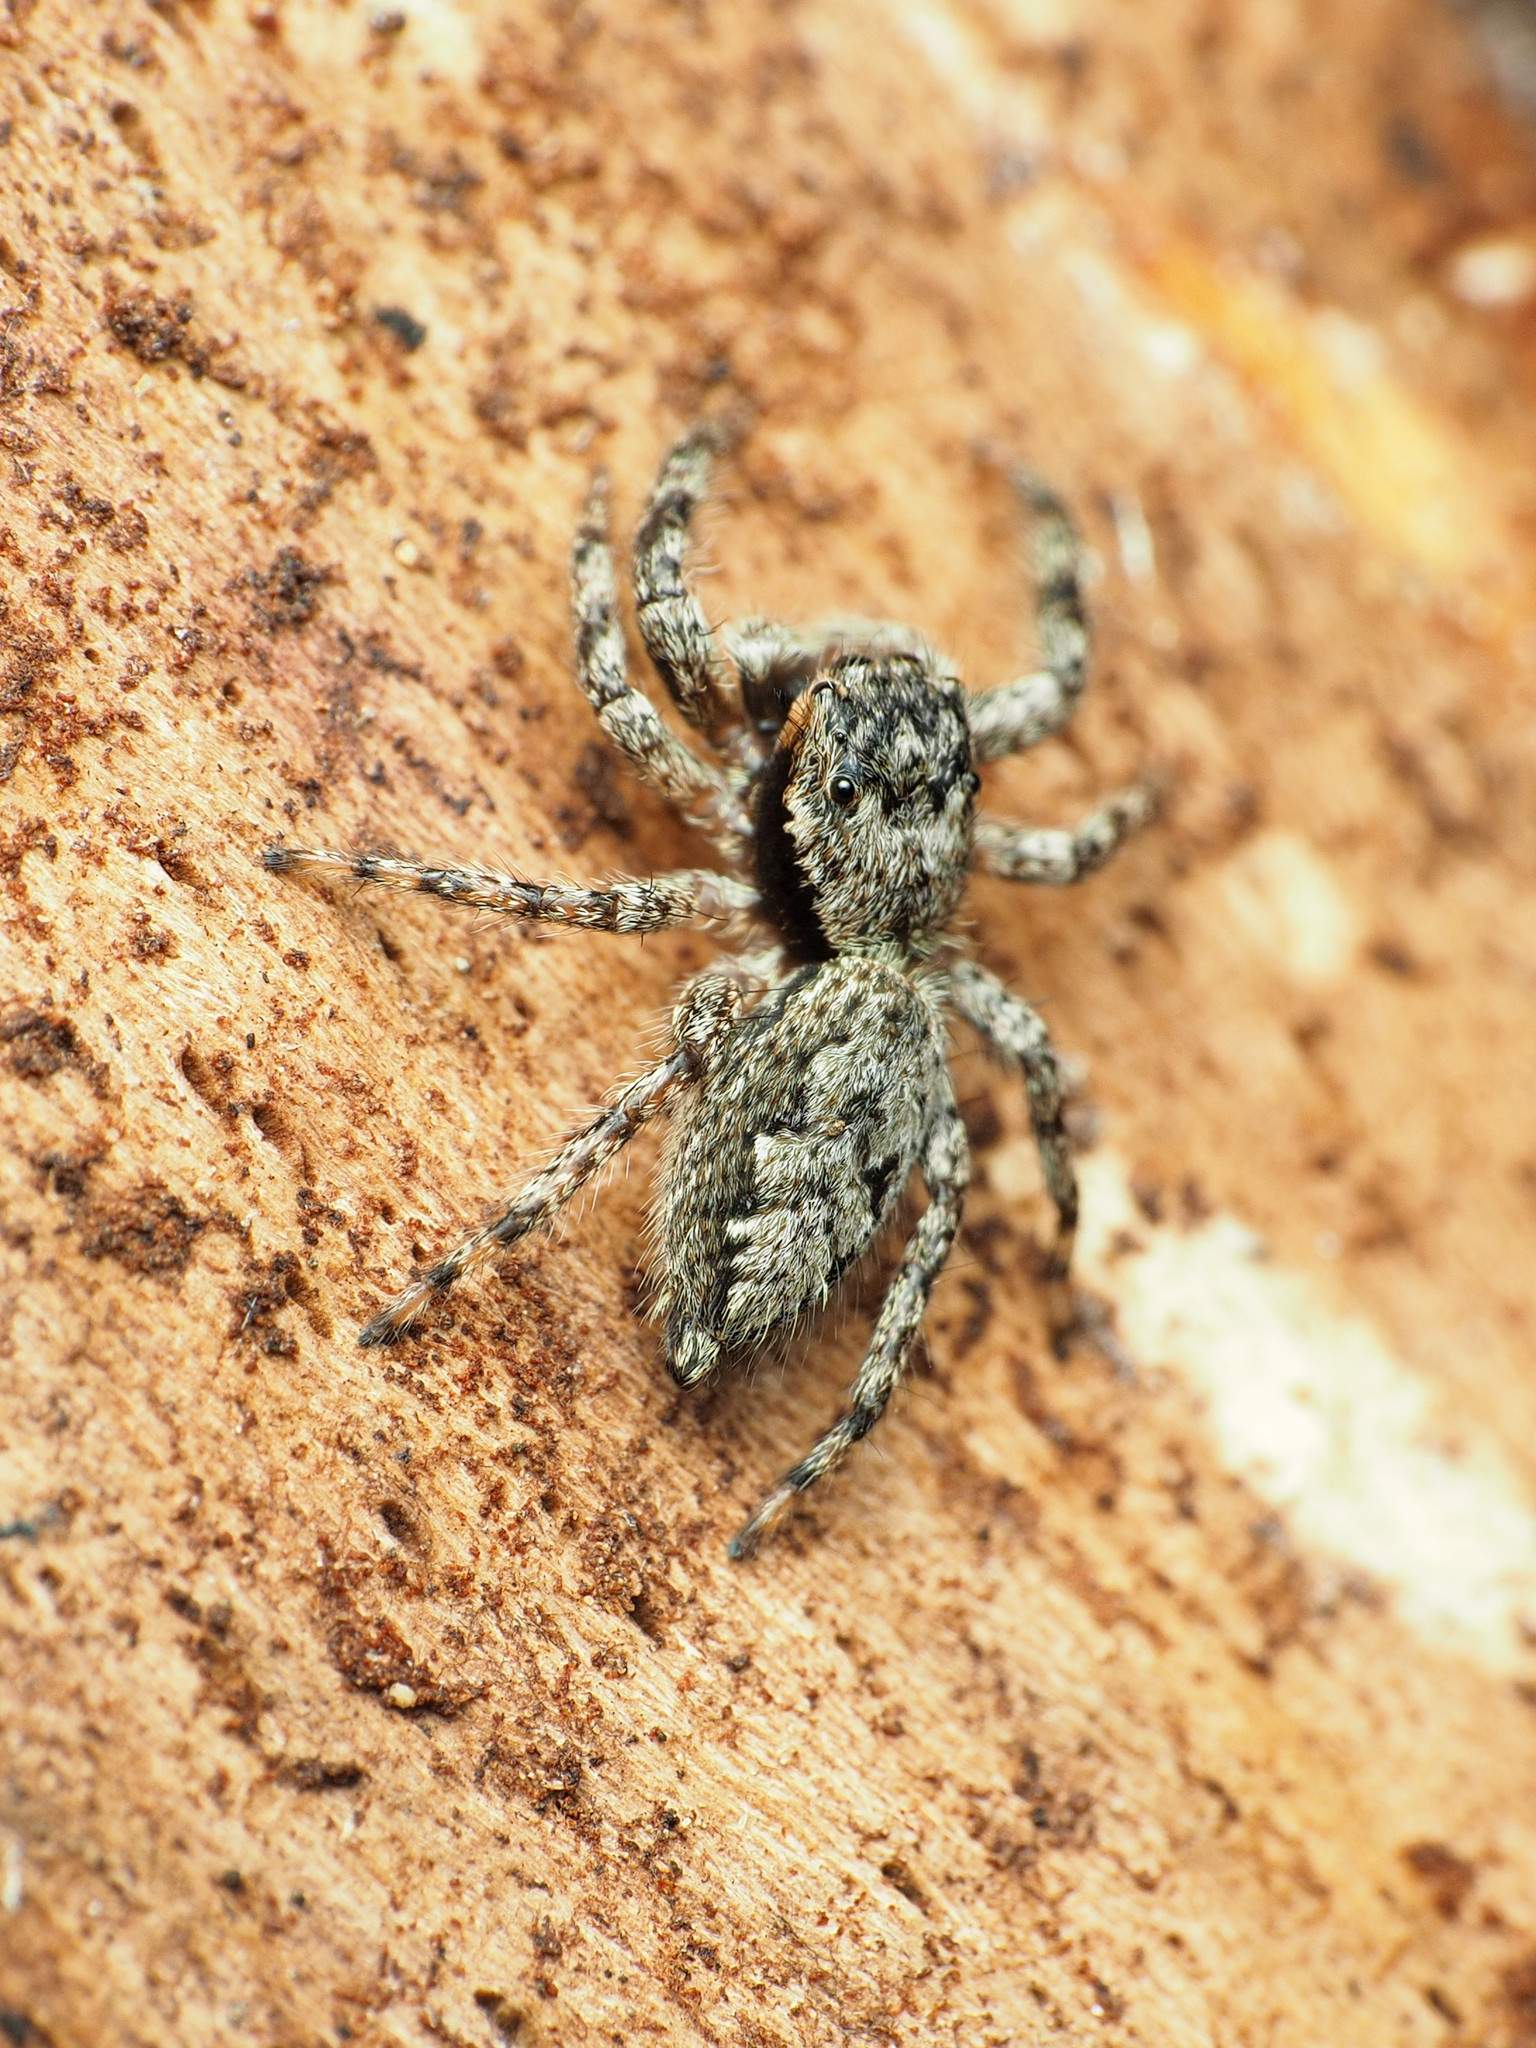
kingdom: Animalia
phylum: Arthropoda
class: Arachnida
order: Araneae
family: Salticidae
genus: Platycryptus
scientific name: Platycryptus undatus
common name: Tan jumping spider
